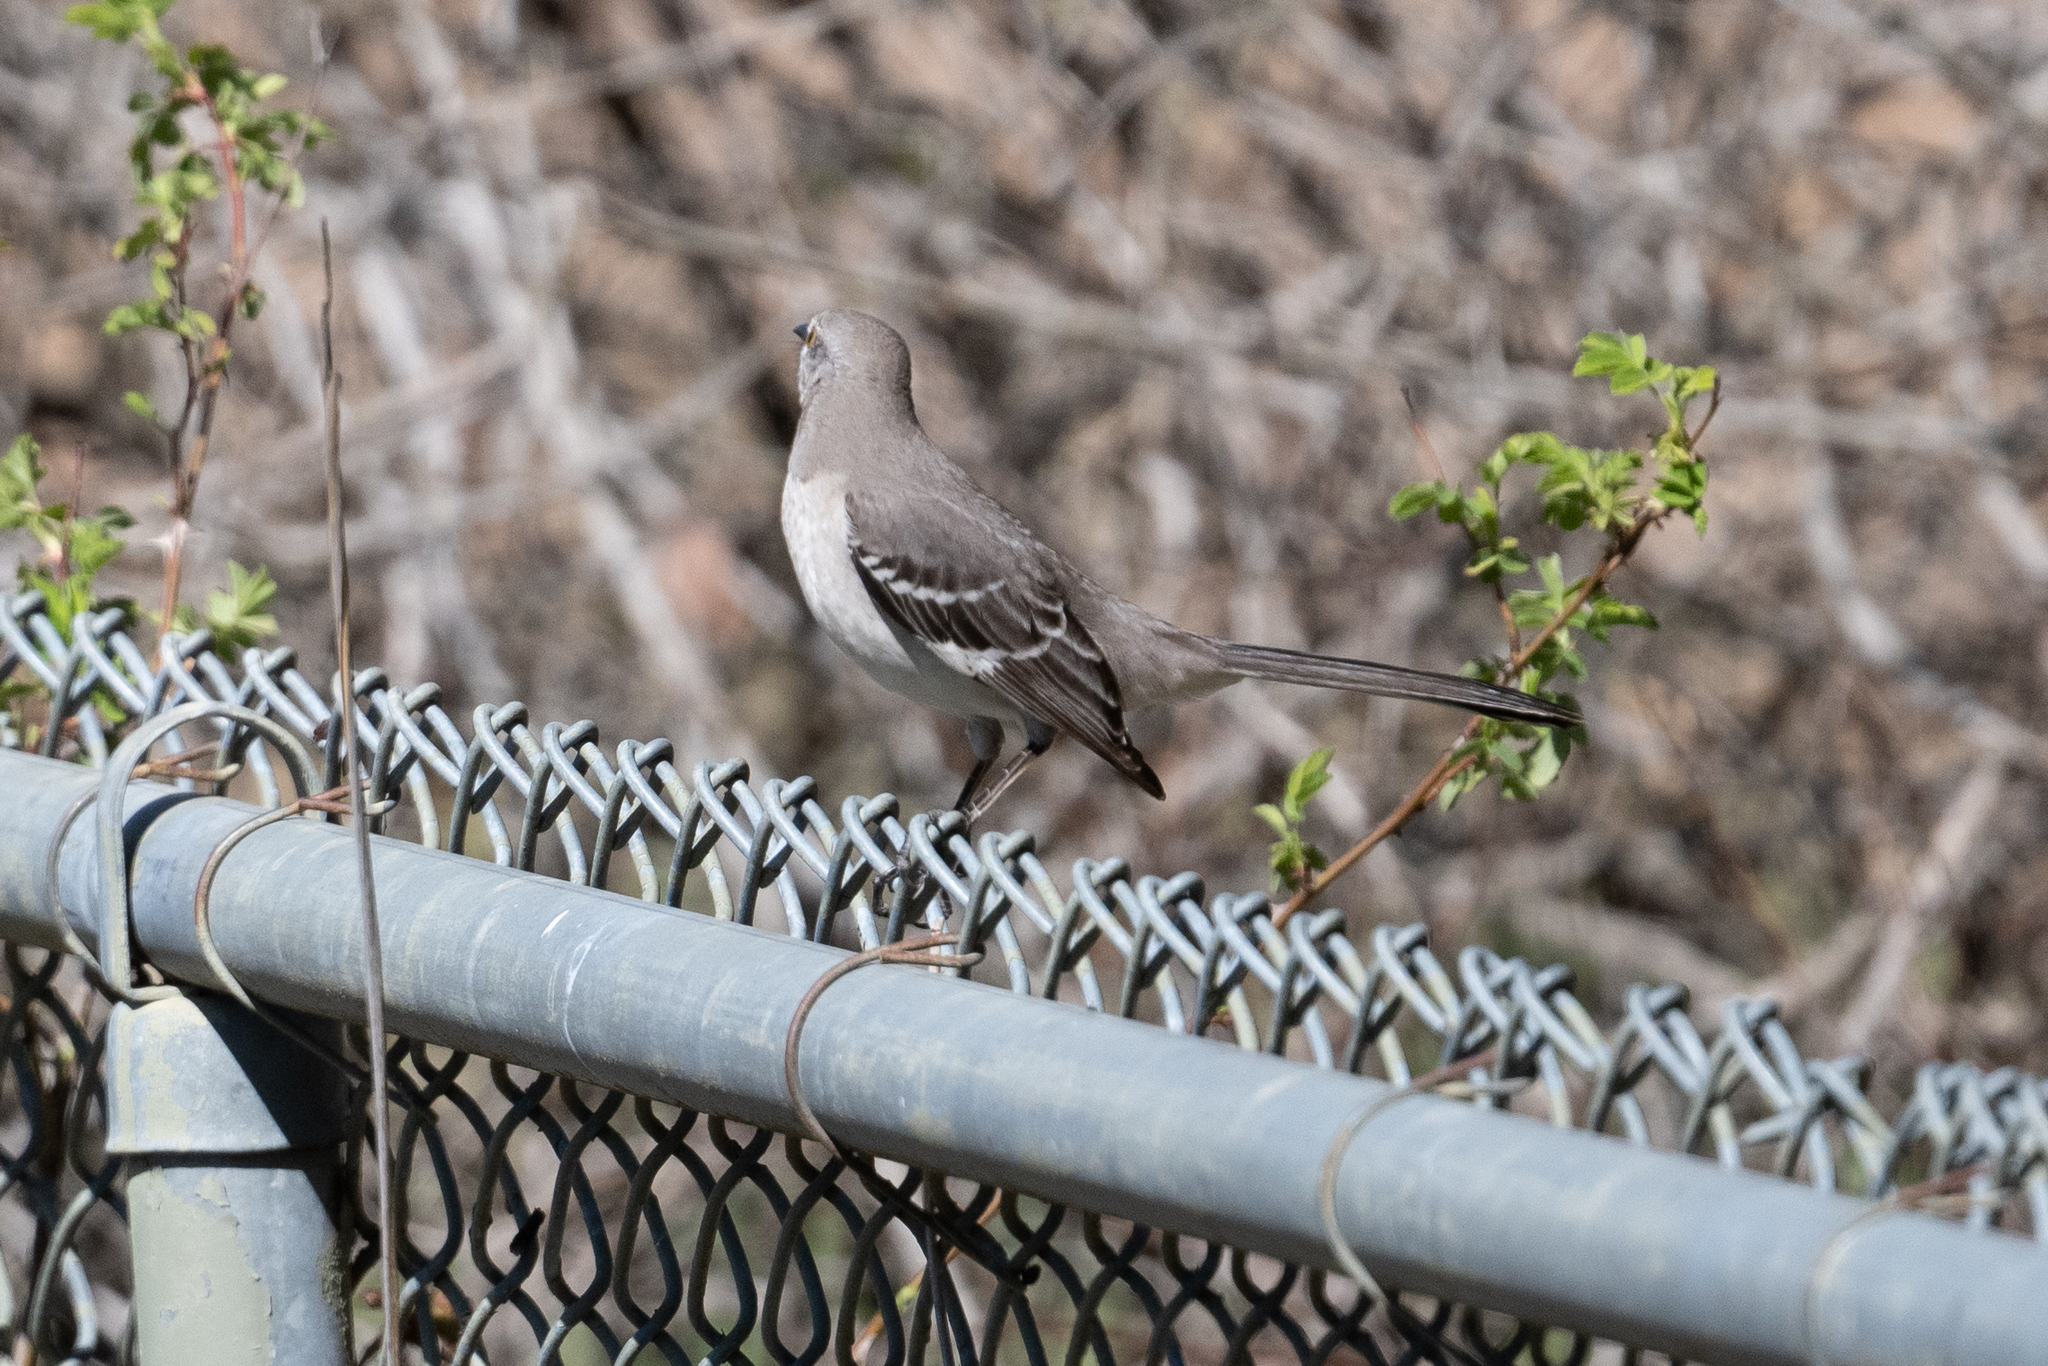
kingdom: Animalia
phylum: Chordata
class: Aves
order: Passeriformes
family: Mimidae
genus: Mimus
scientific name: Mimus polyglottos
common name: Northern mockingbird
